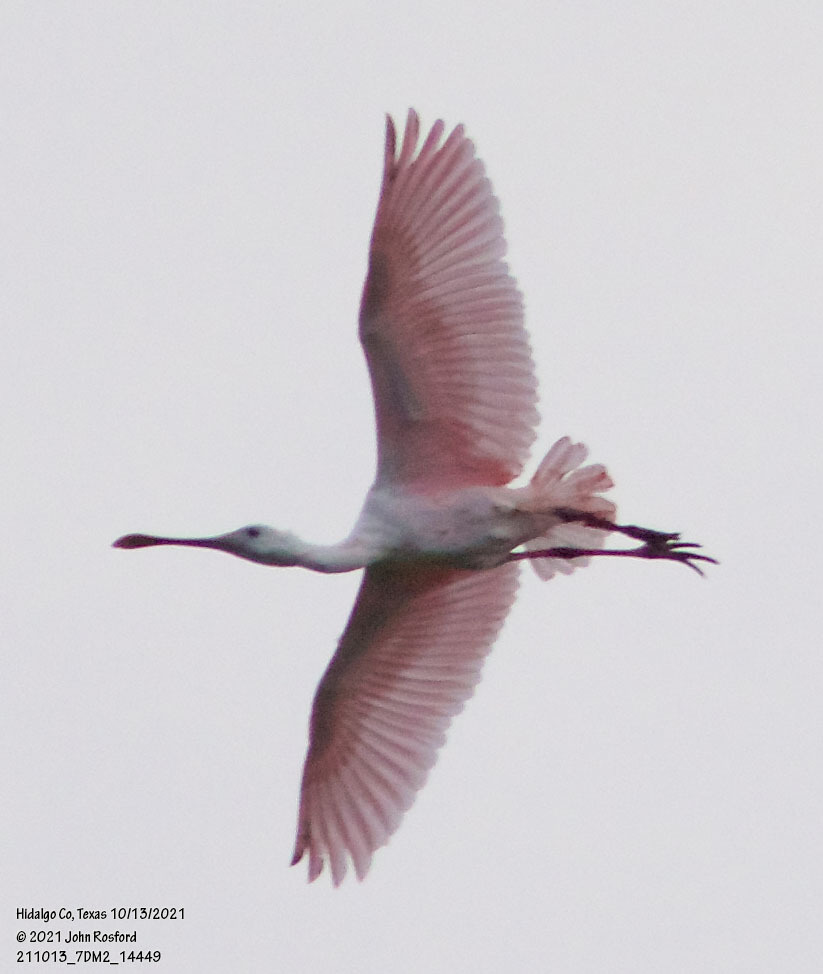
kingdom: Animalia
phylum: Chordata
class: Aves
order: Pelecaniformes
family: Threskiornithidae
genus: Platalea
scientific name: Platalea ajaja
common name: Roseate spoonbill
